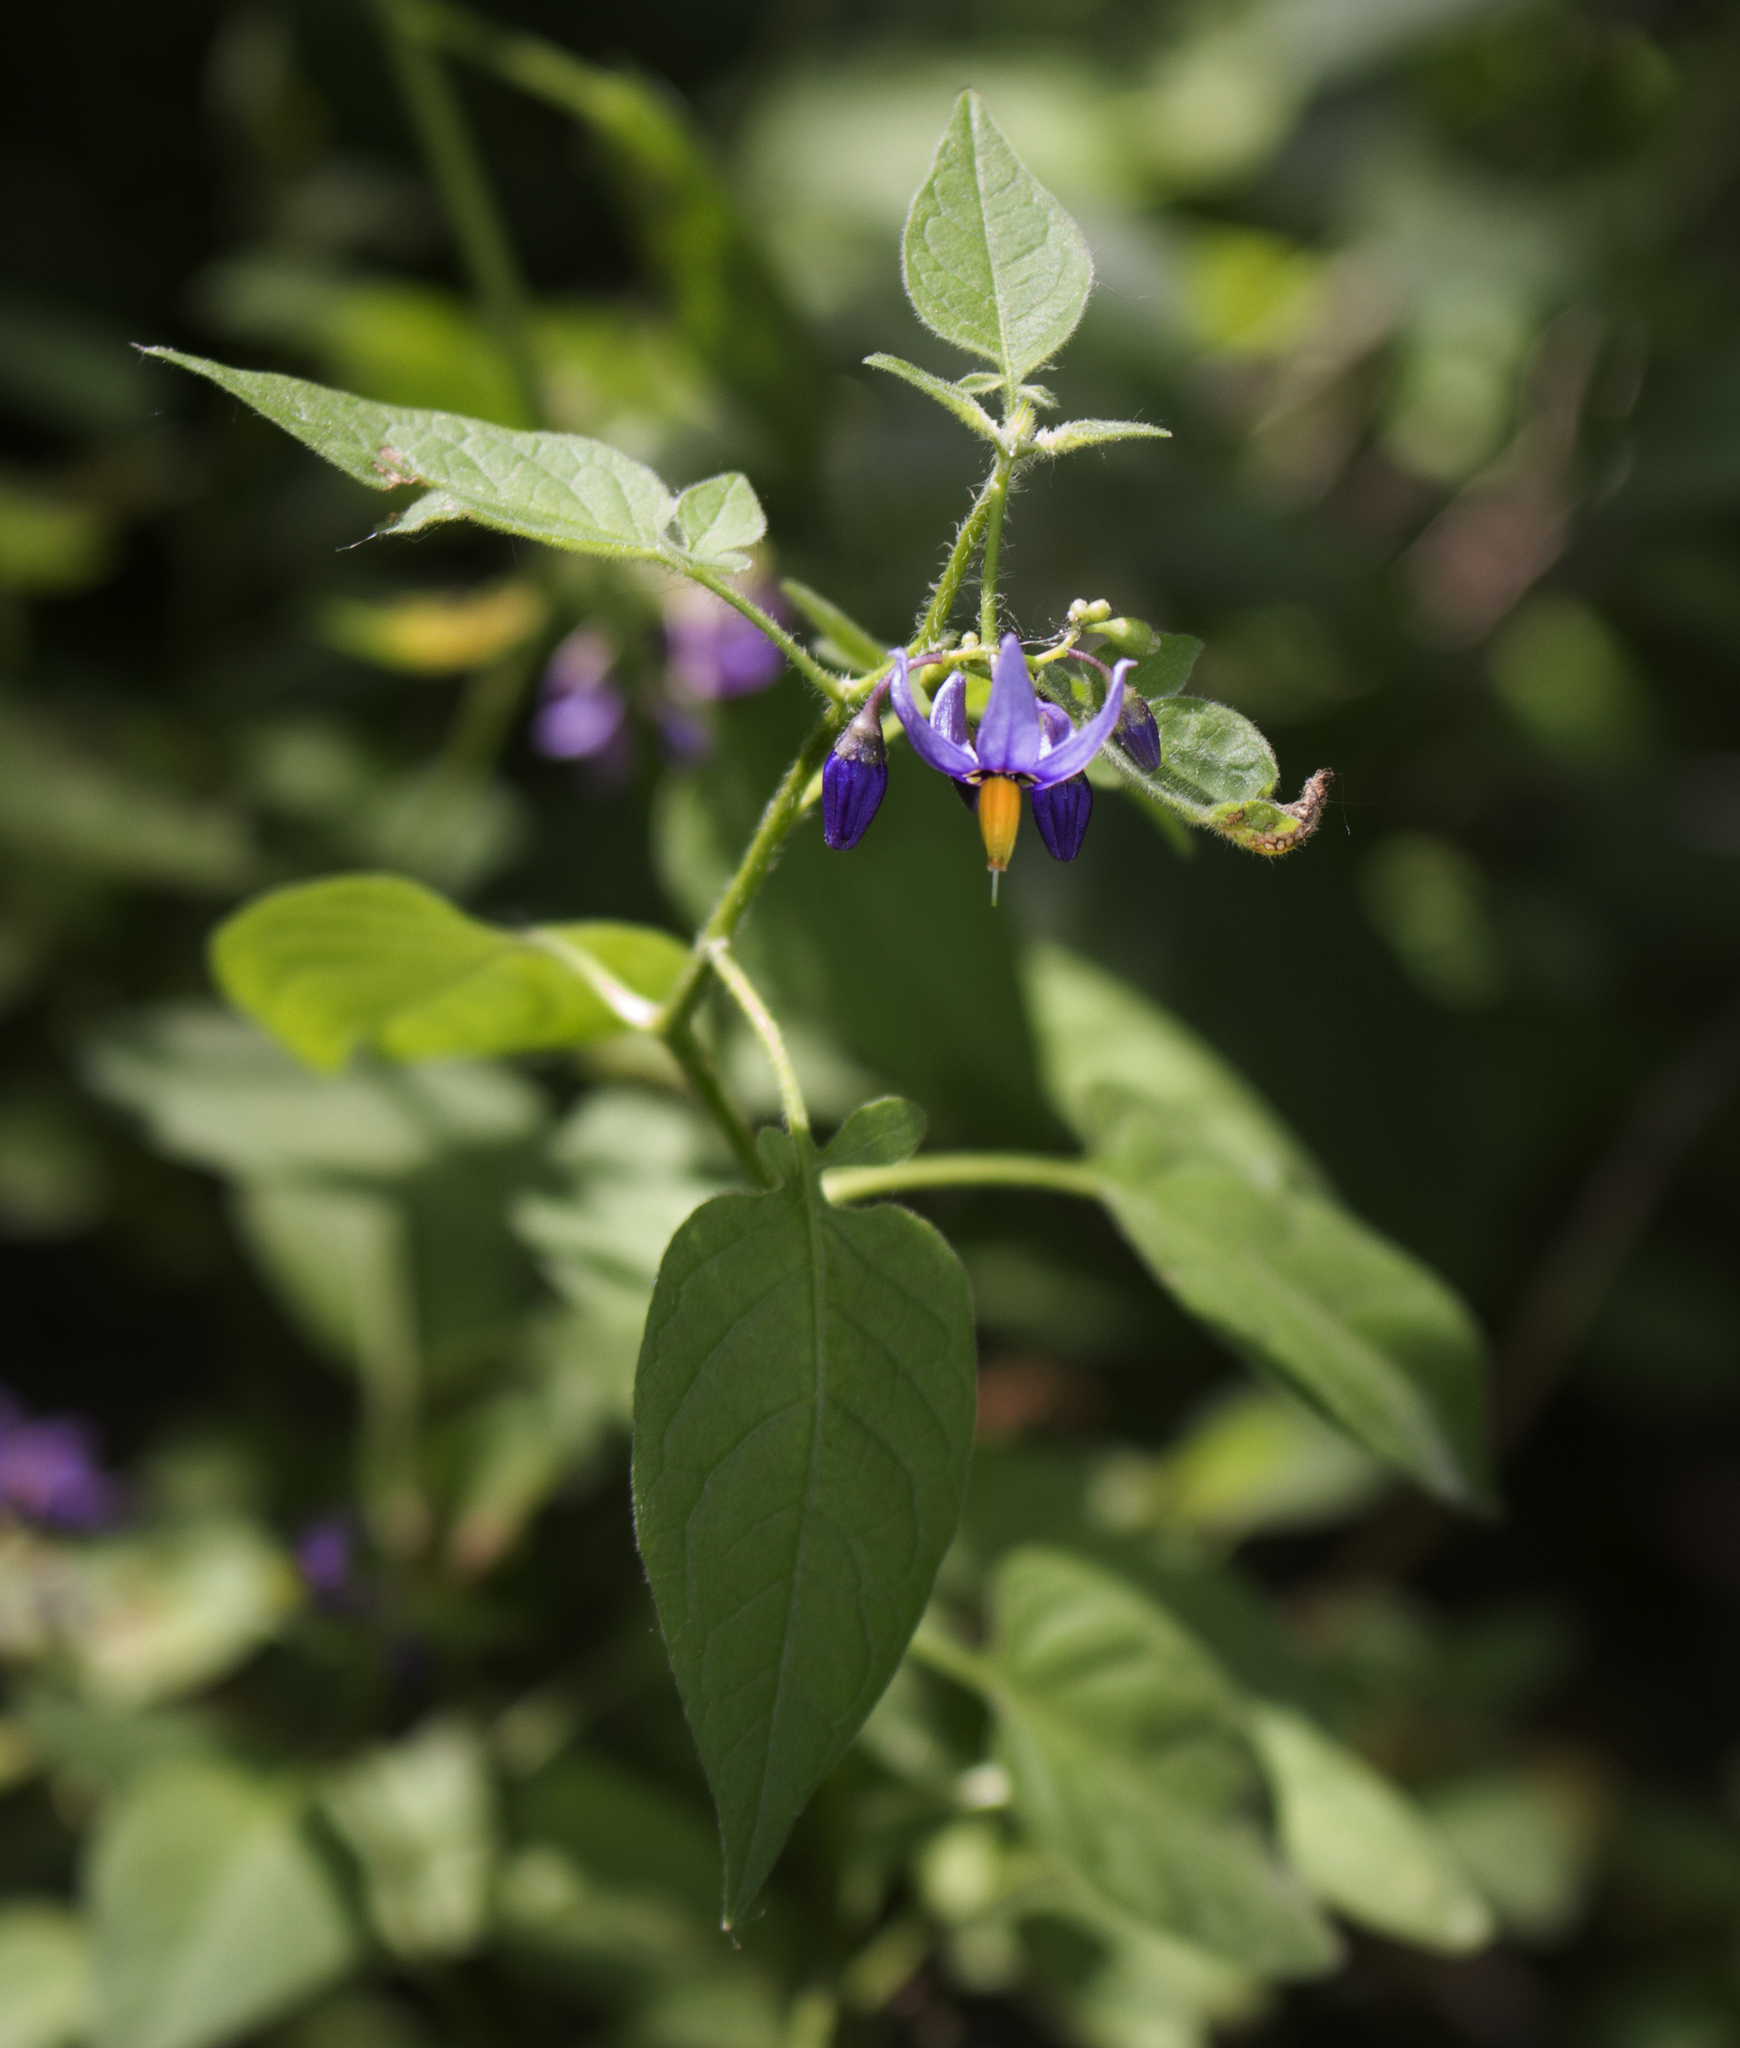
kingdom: Plantae
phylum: Tracheophyta
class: Magnoliopsida
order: Solanales
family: Solanaceae
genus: Solanum
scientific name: Solanum dulcamara
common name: Climbing nightshade
